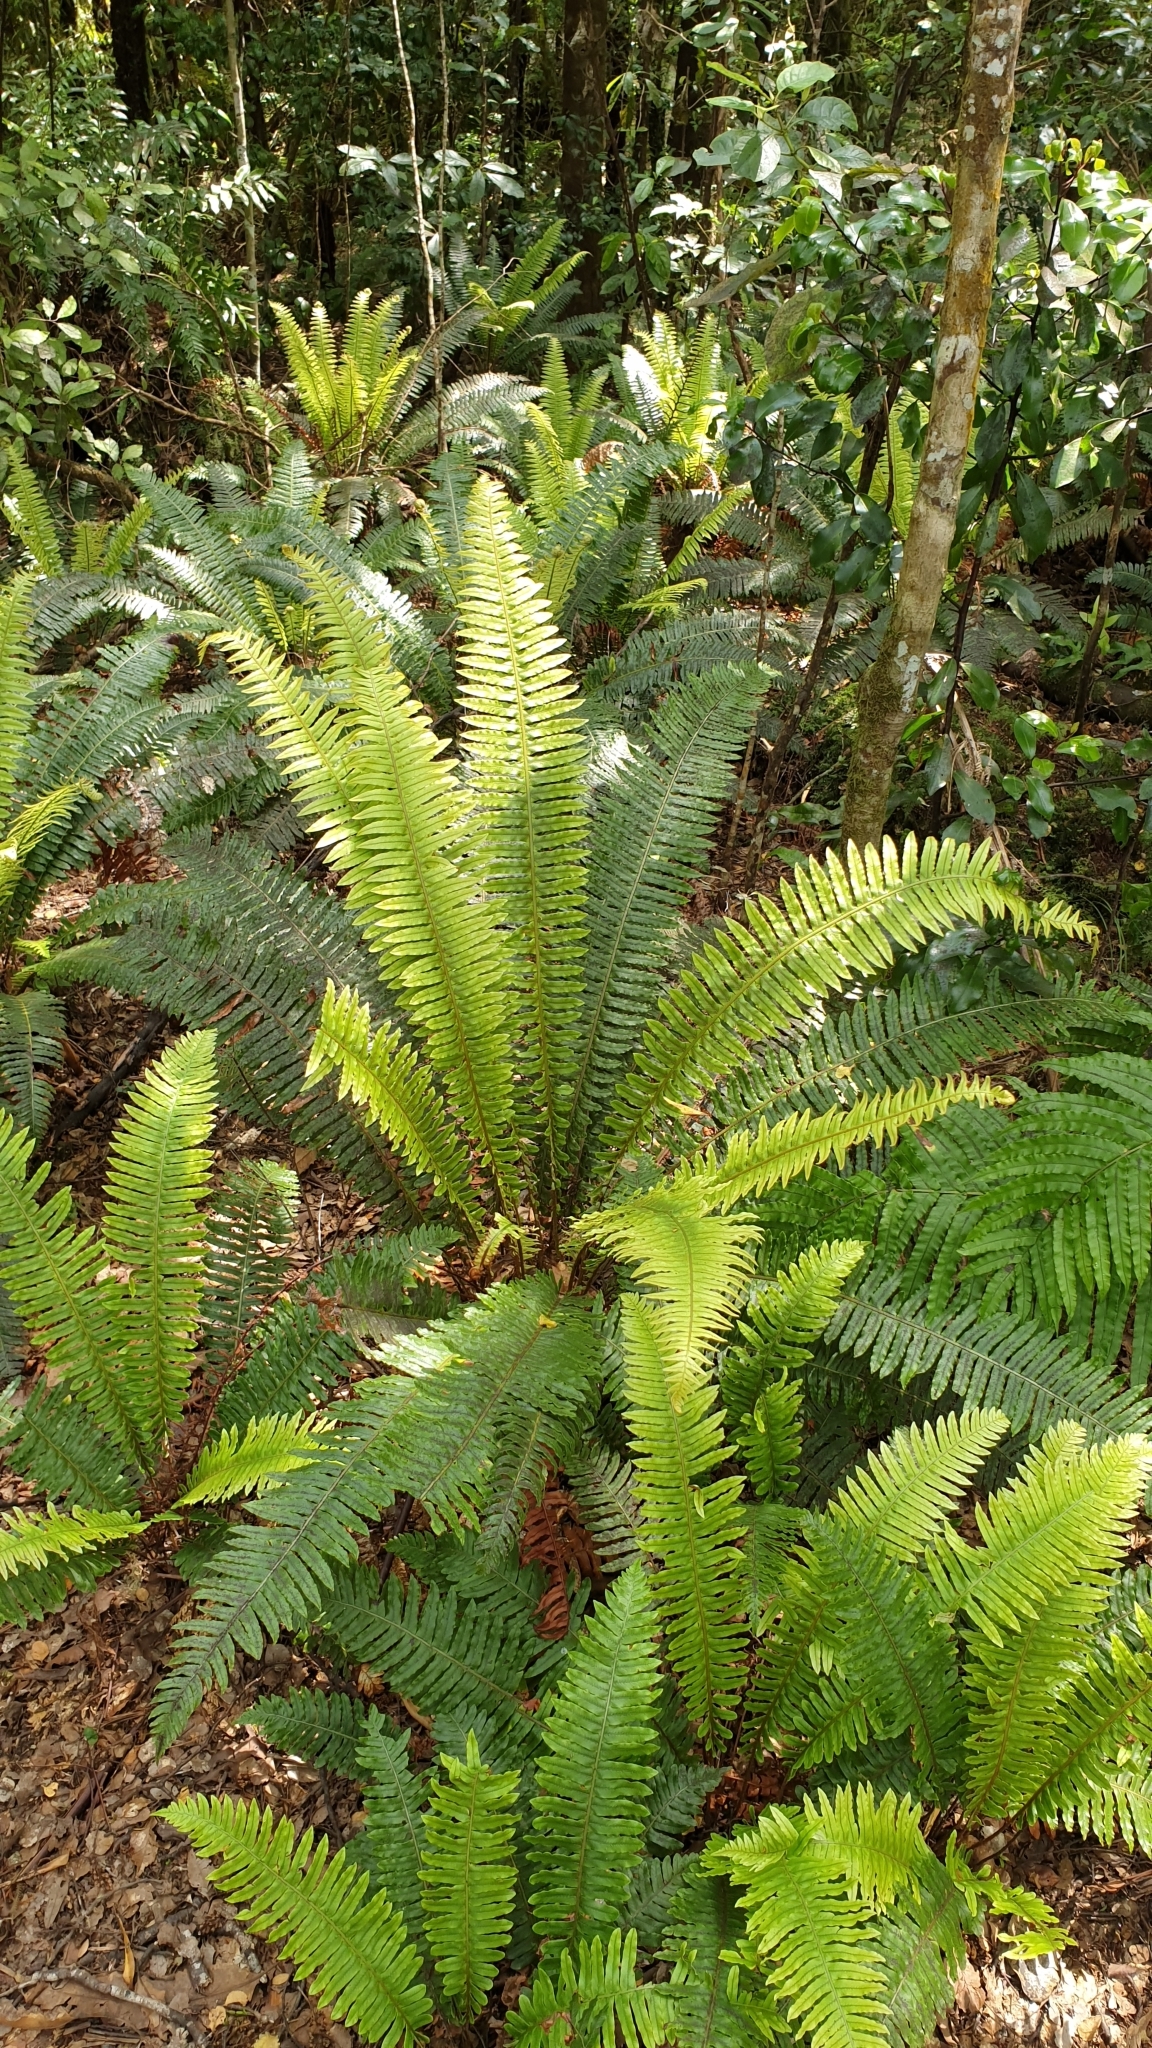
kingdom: Plantae
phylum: Tracheophyta
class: Polypodiopsida
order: Polypodiales
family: Blechnaceae
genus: Lomaria
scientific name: Lomaria discolor
